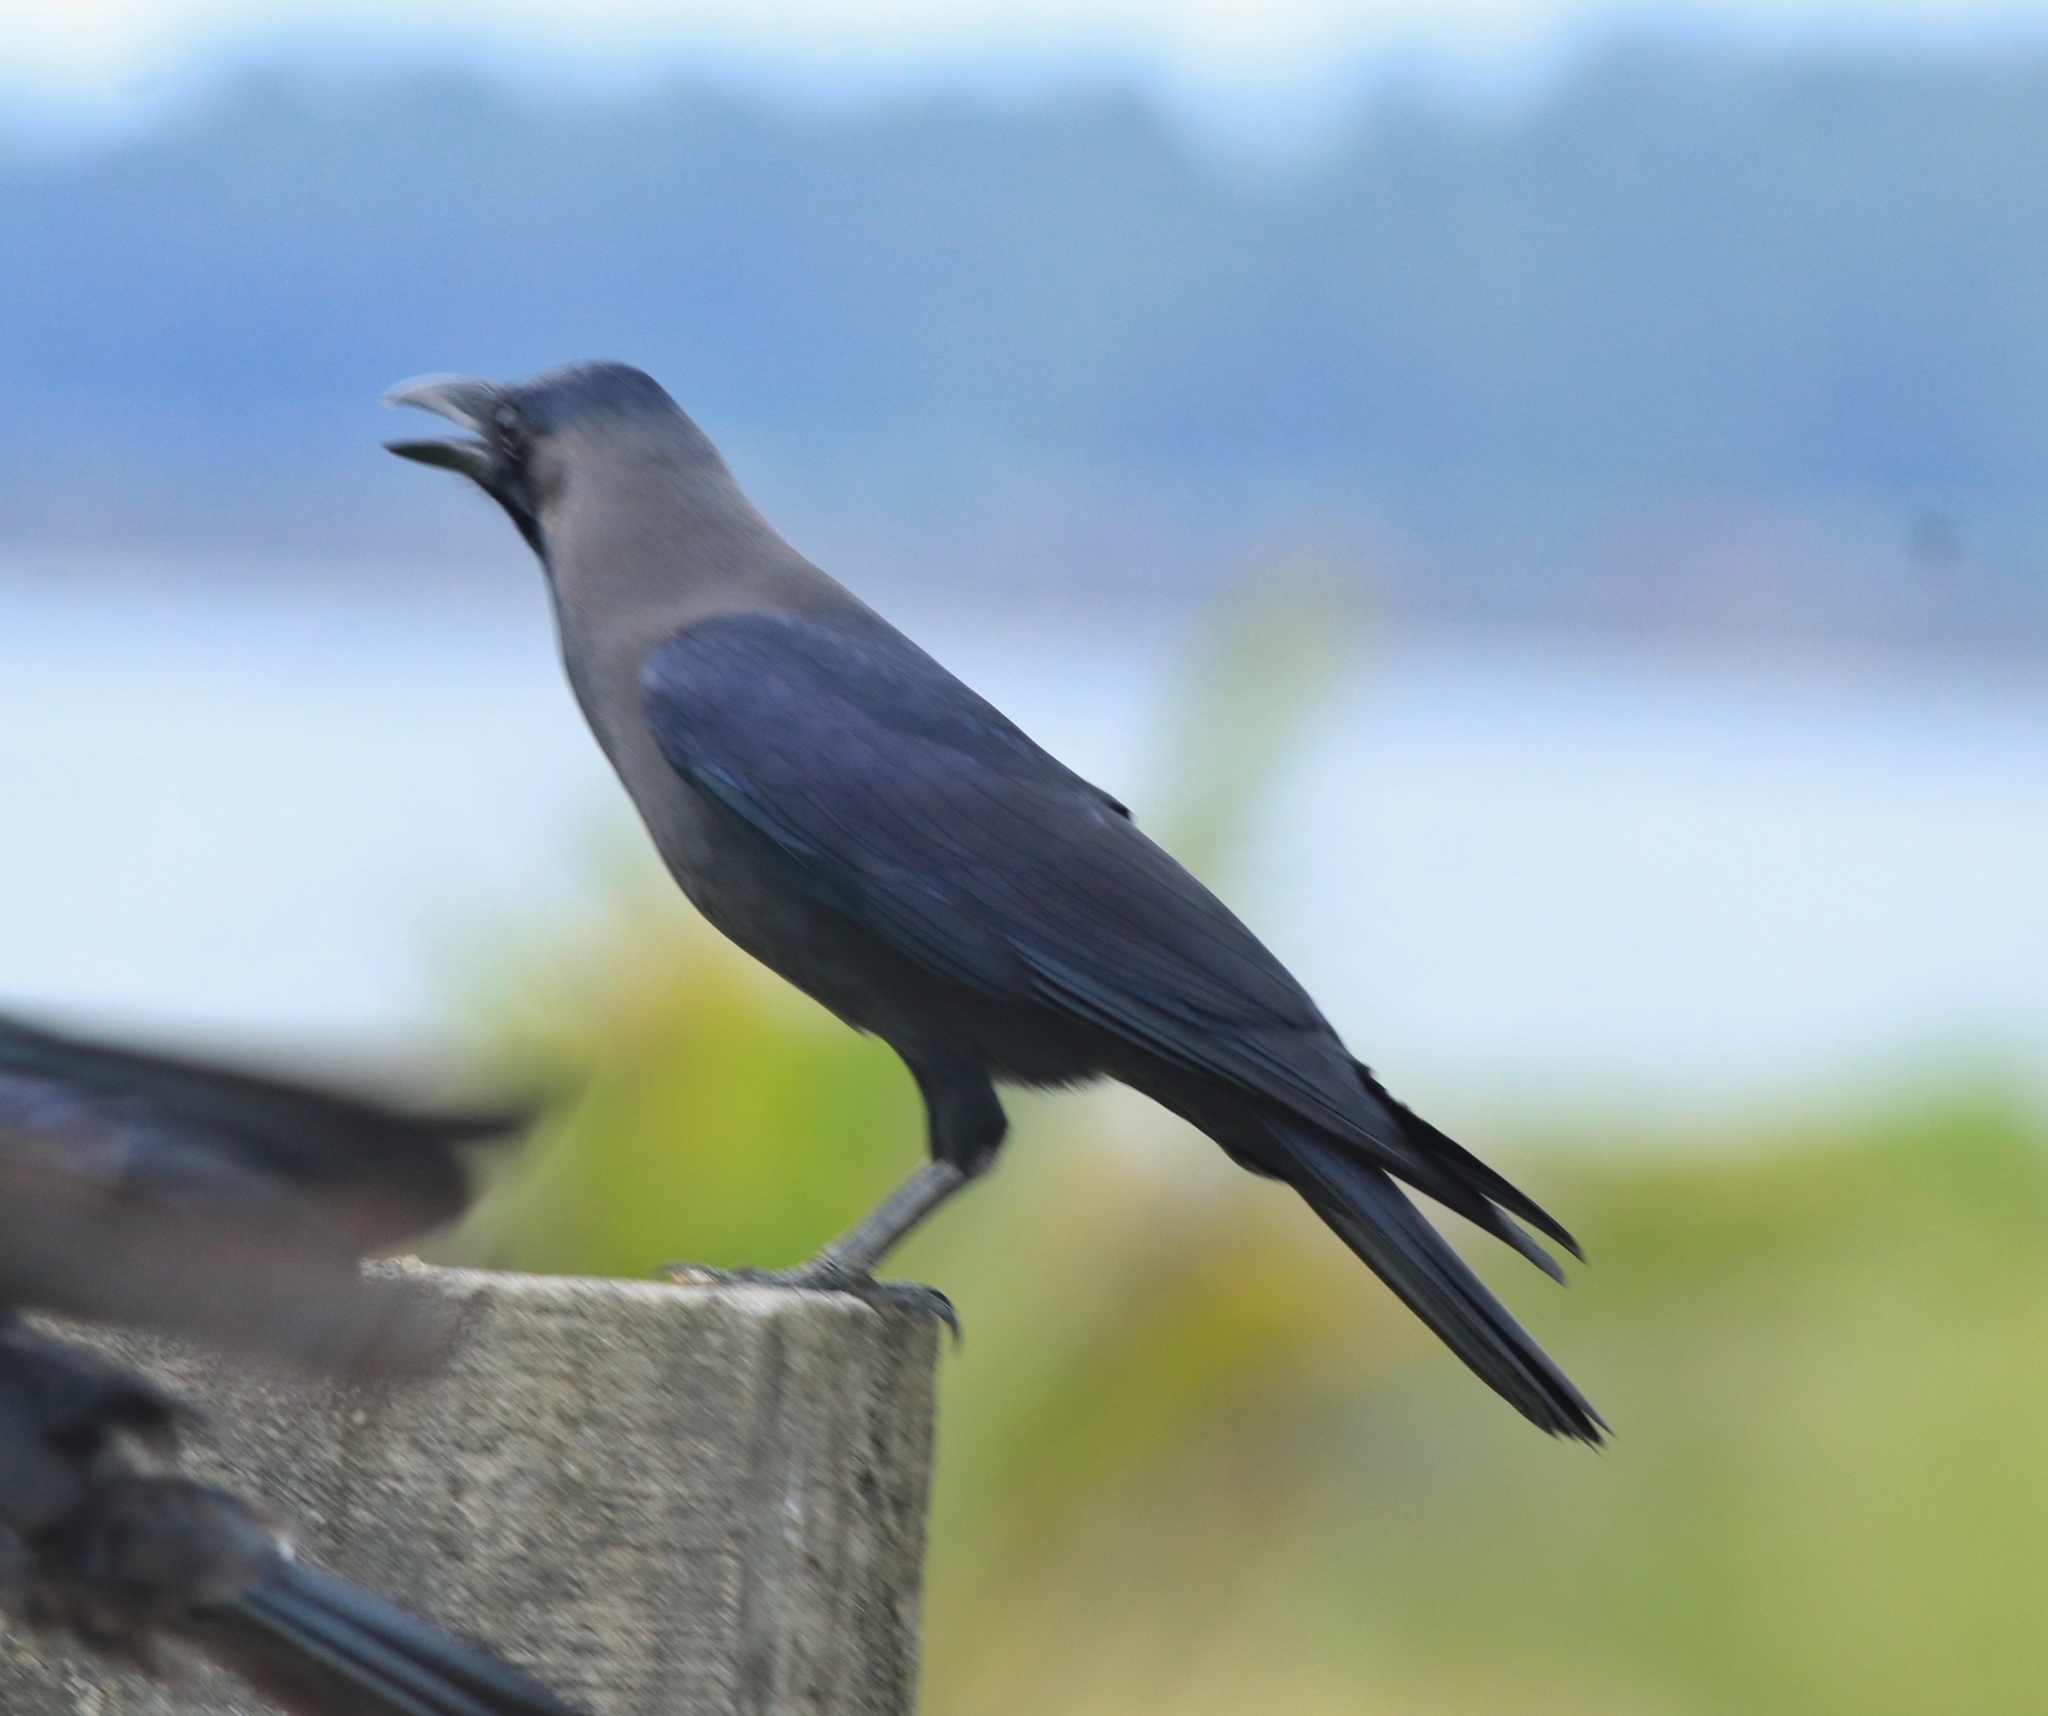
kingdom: Animalia
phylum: Chordata
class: Aves
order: Passeriformes
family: Corvidae
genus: Corvus
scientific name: Corvus splendens
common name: House crow
